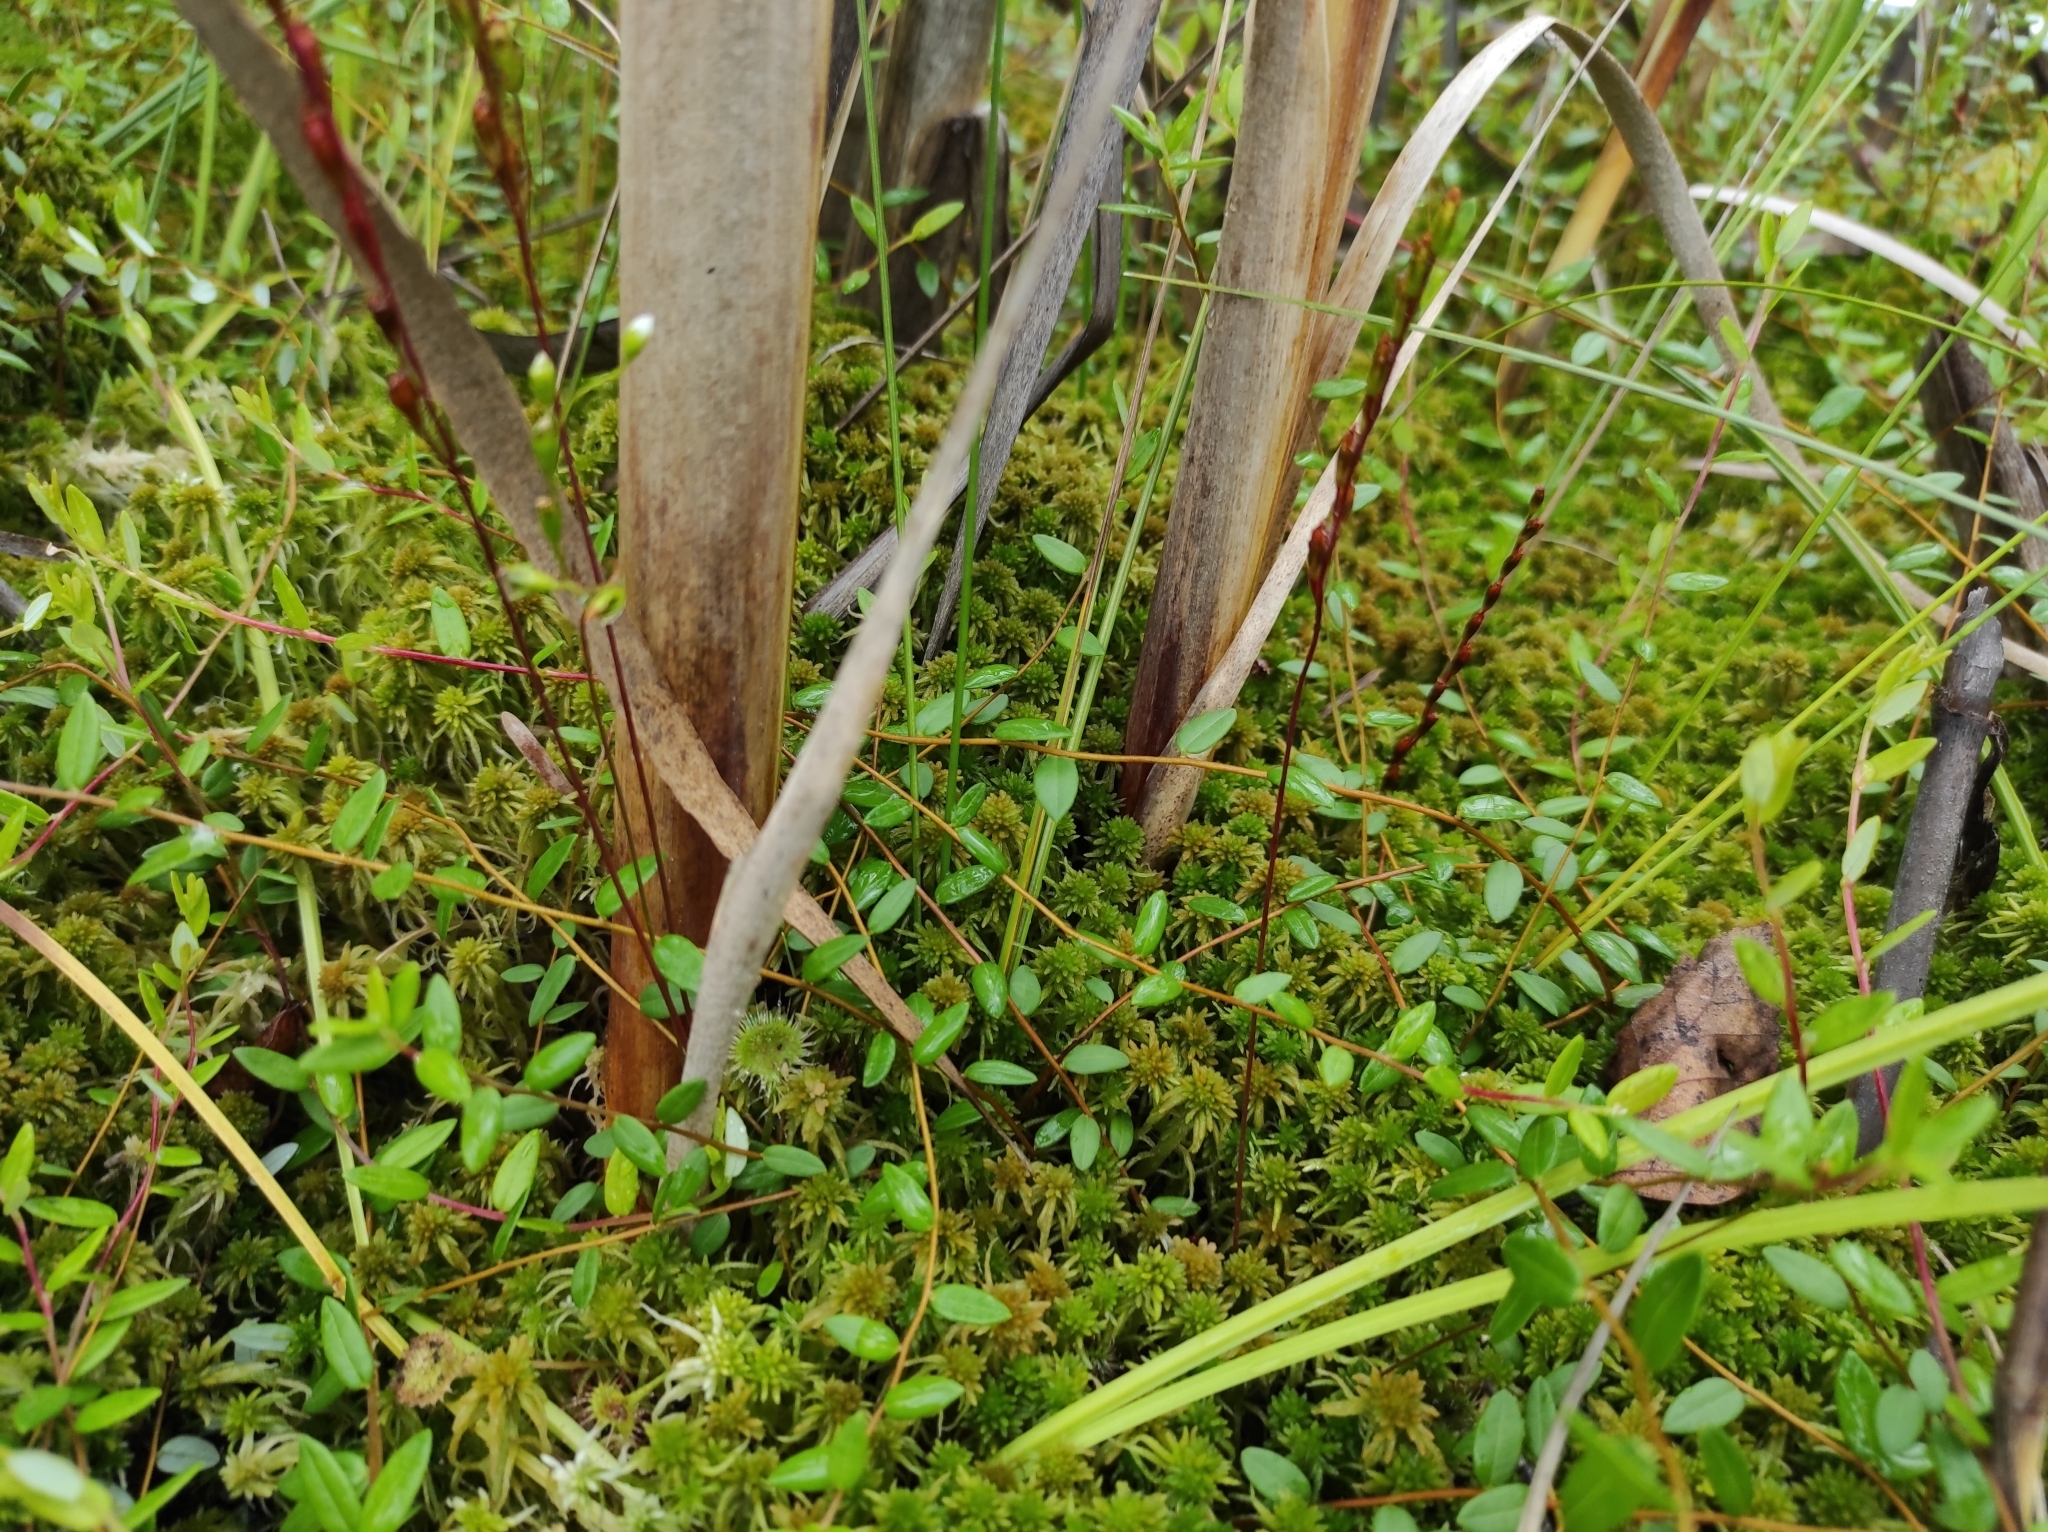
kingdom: Plantae
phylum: Tracheophyta
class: Magnoliopsida
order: Ericales
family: Ericaceae
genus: Vaccinium
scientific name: Vaccinium oxycoccos
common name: Cranberry
